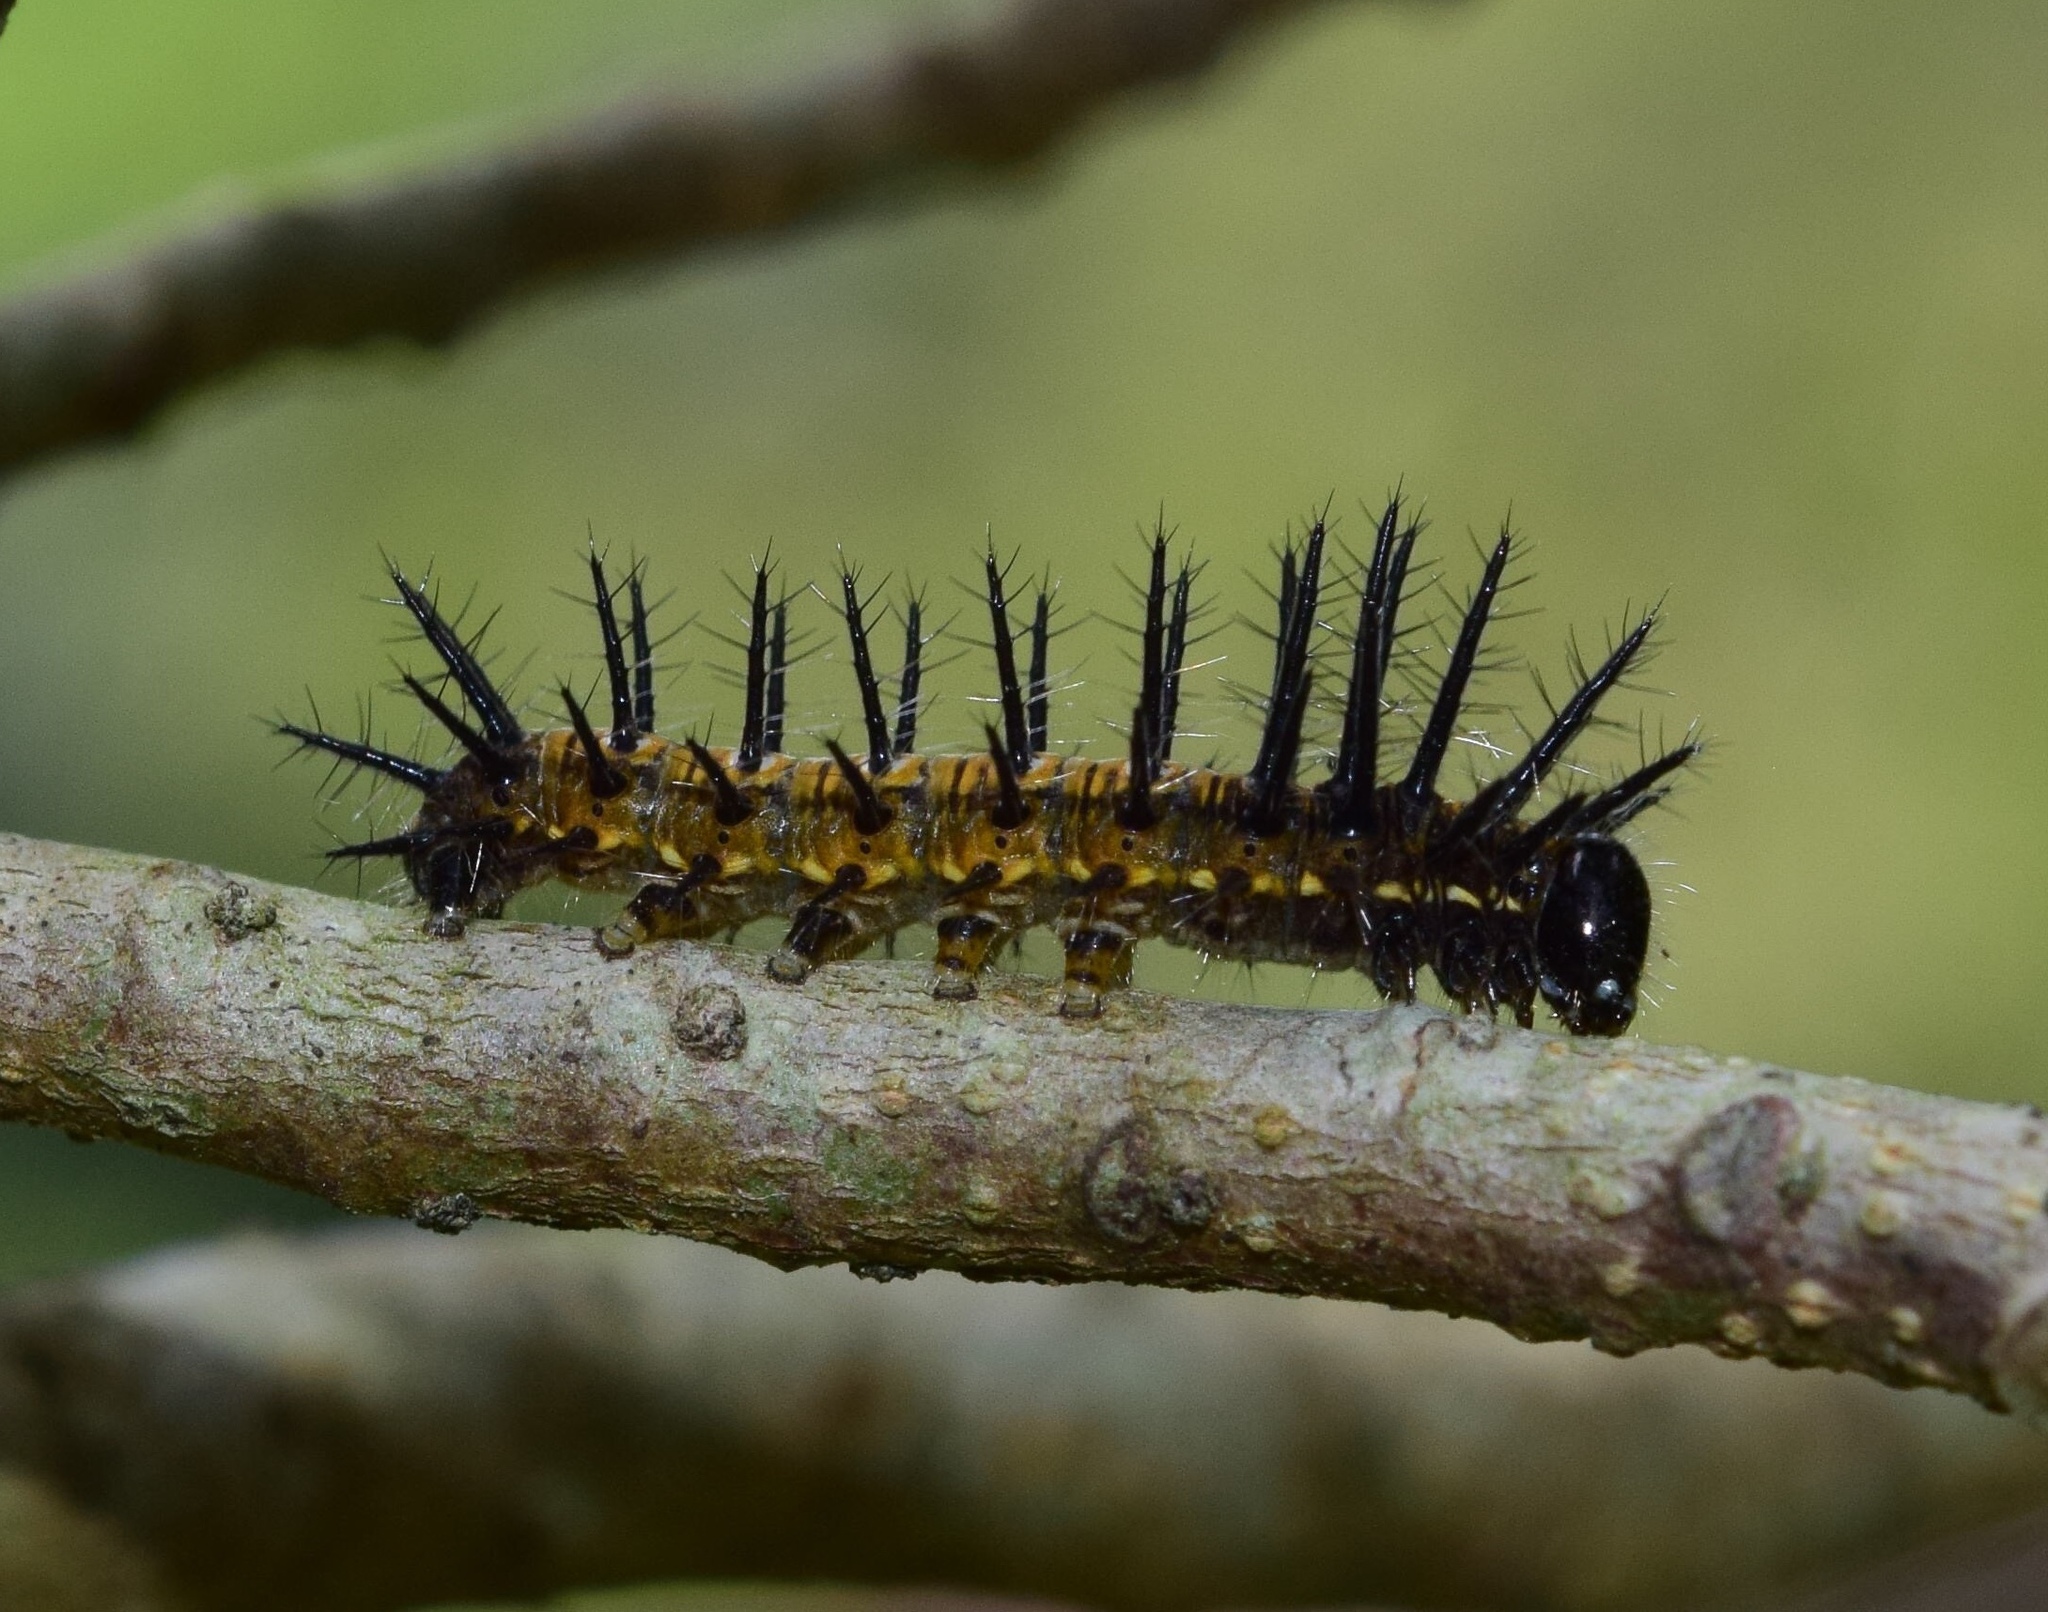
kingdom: Animalia
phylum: Arthropoda
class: Insecta
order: Lepidoptera
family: Nymphalidae
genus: Rubraea
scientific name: Rubraea
